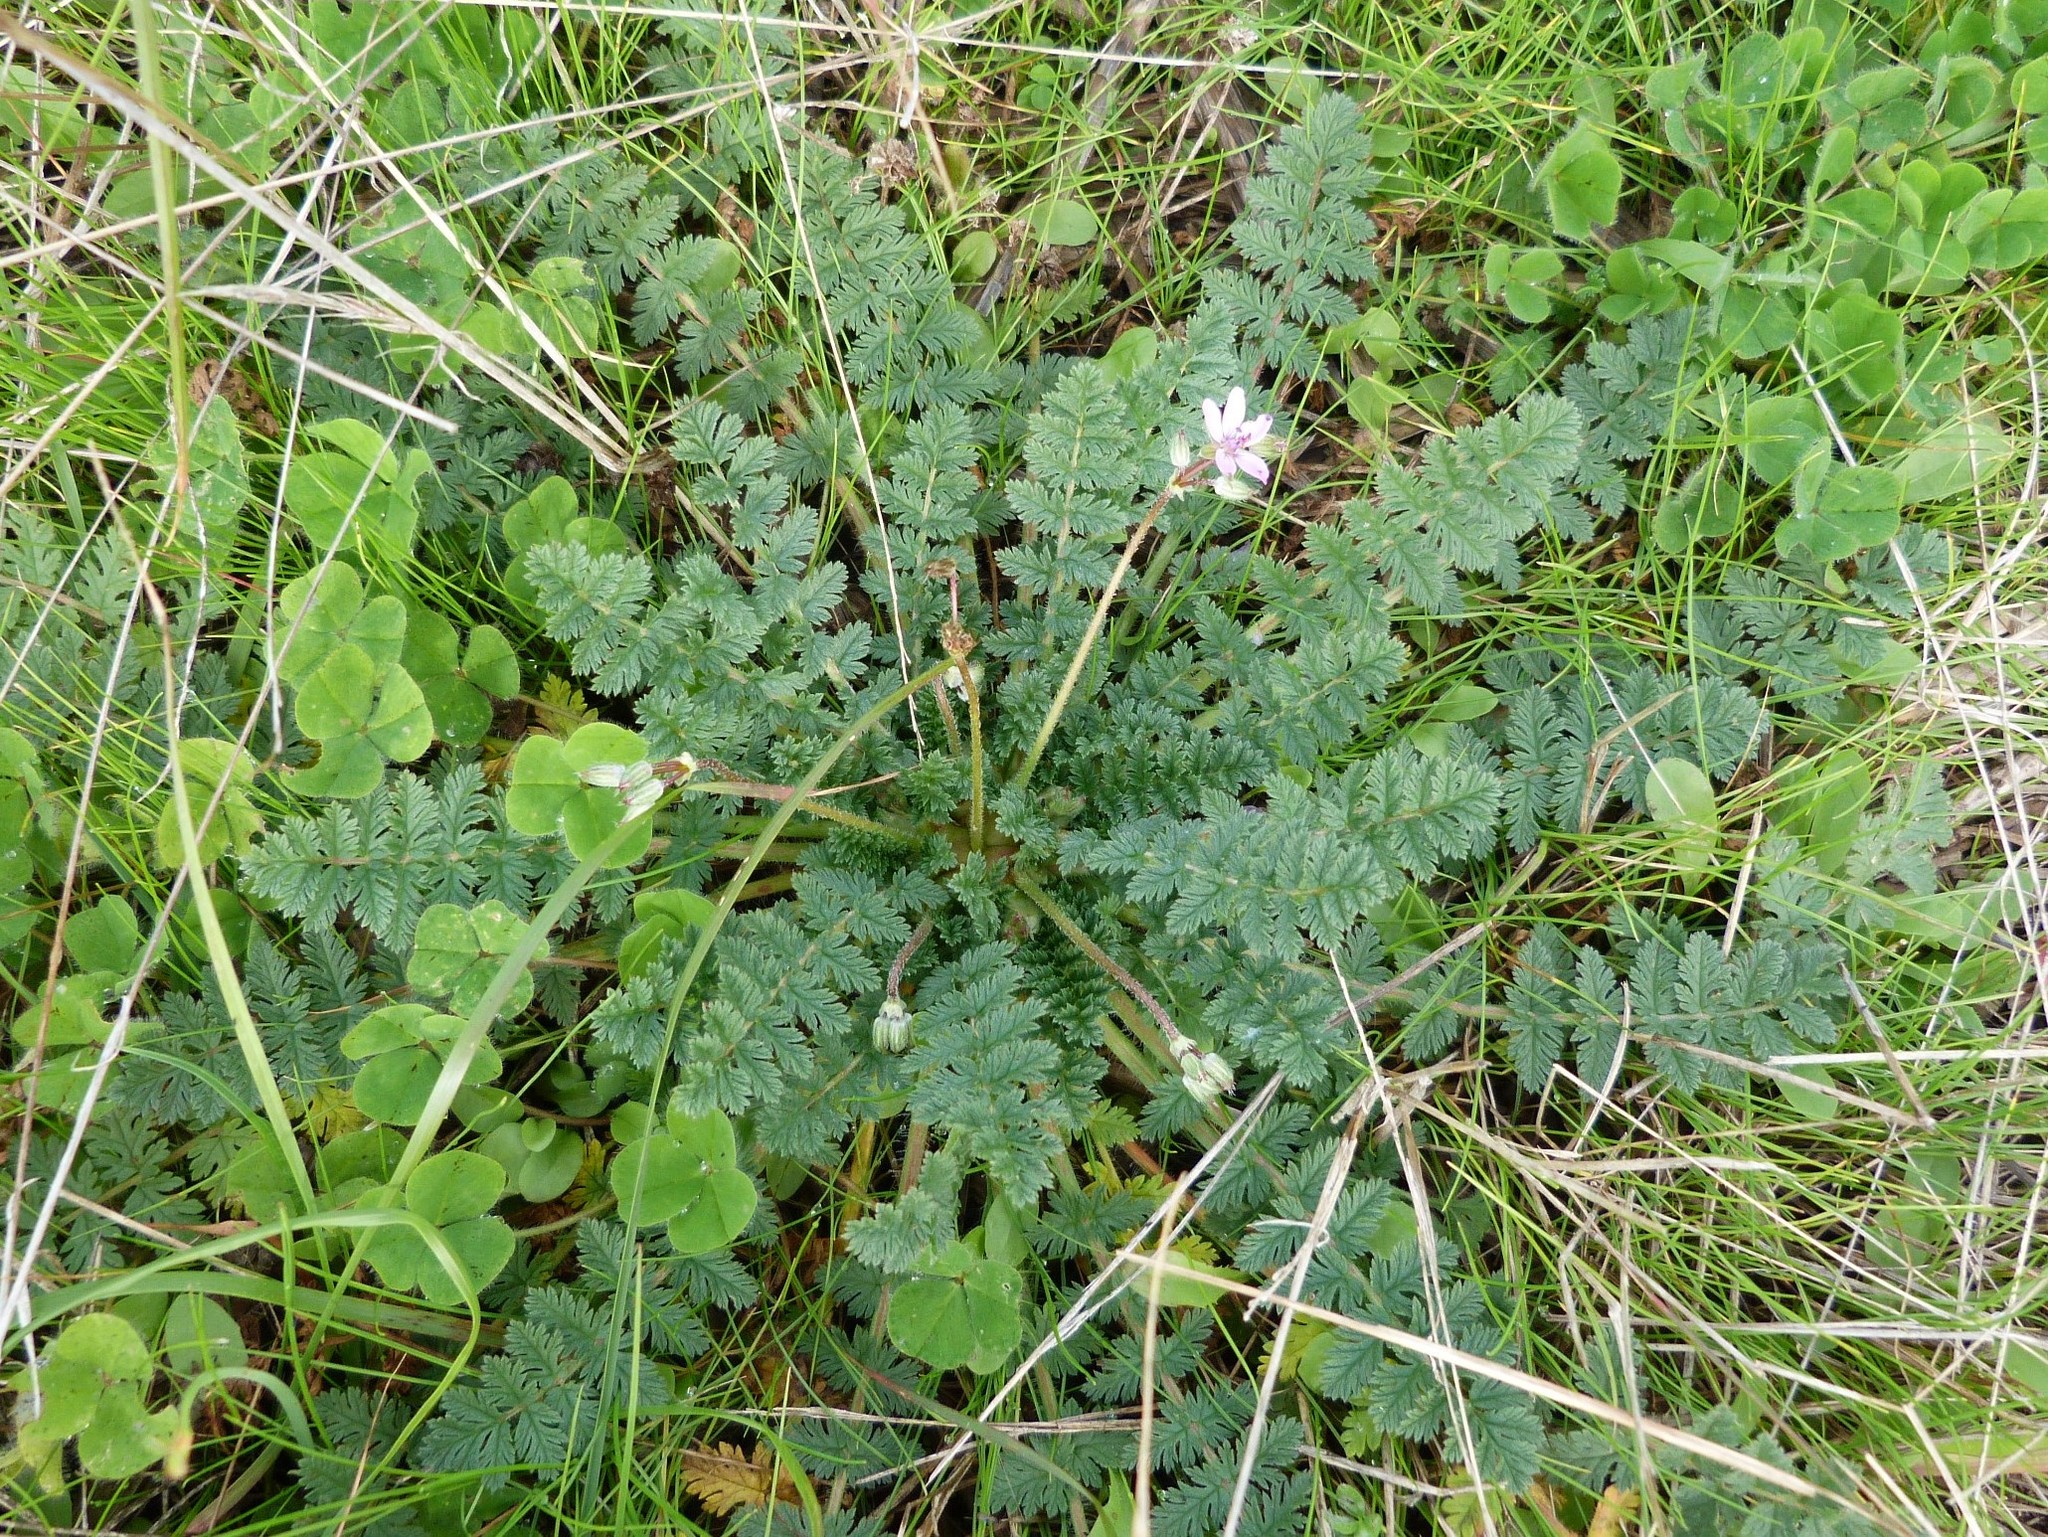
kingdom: Plantae
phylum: Tracheophyta
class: Magnoliopsida
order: Geraniales
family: Geraniaceae
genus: Erodium
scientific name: Erodium moschatum
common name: Musk stork's-bill
